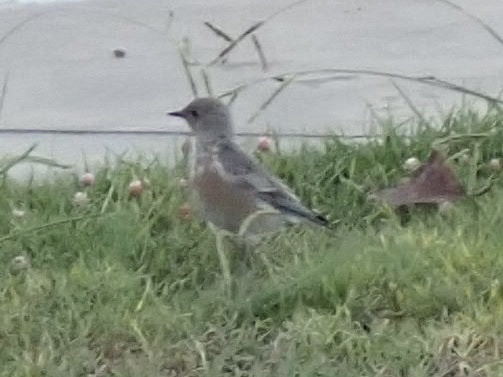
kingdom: Animalia
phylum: Chordata
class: Aves
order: Passeriformes
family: Turdidae
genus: Sialia
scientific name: Sialia mexicana
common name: Western bluebird
